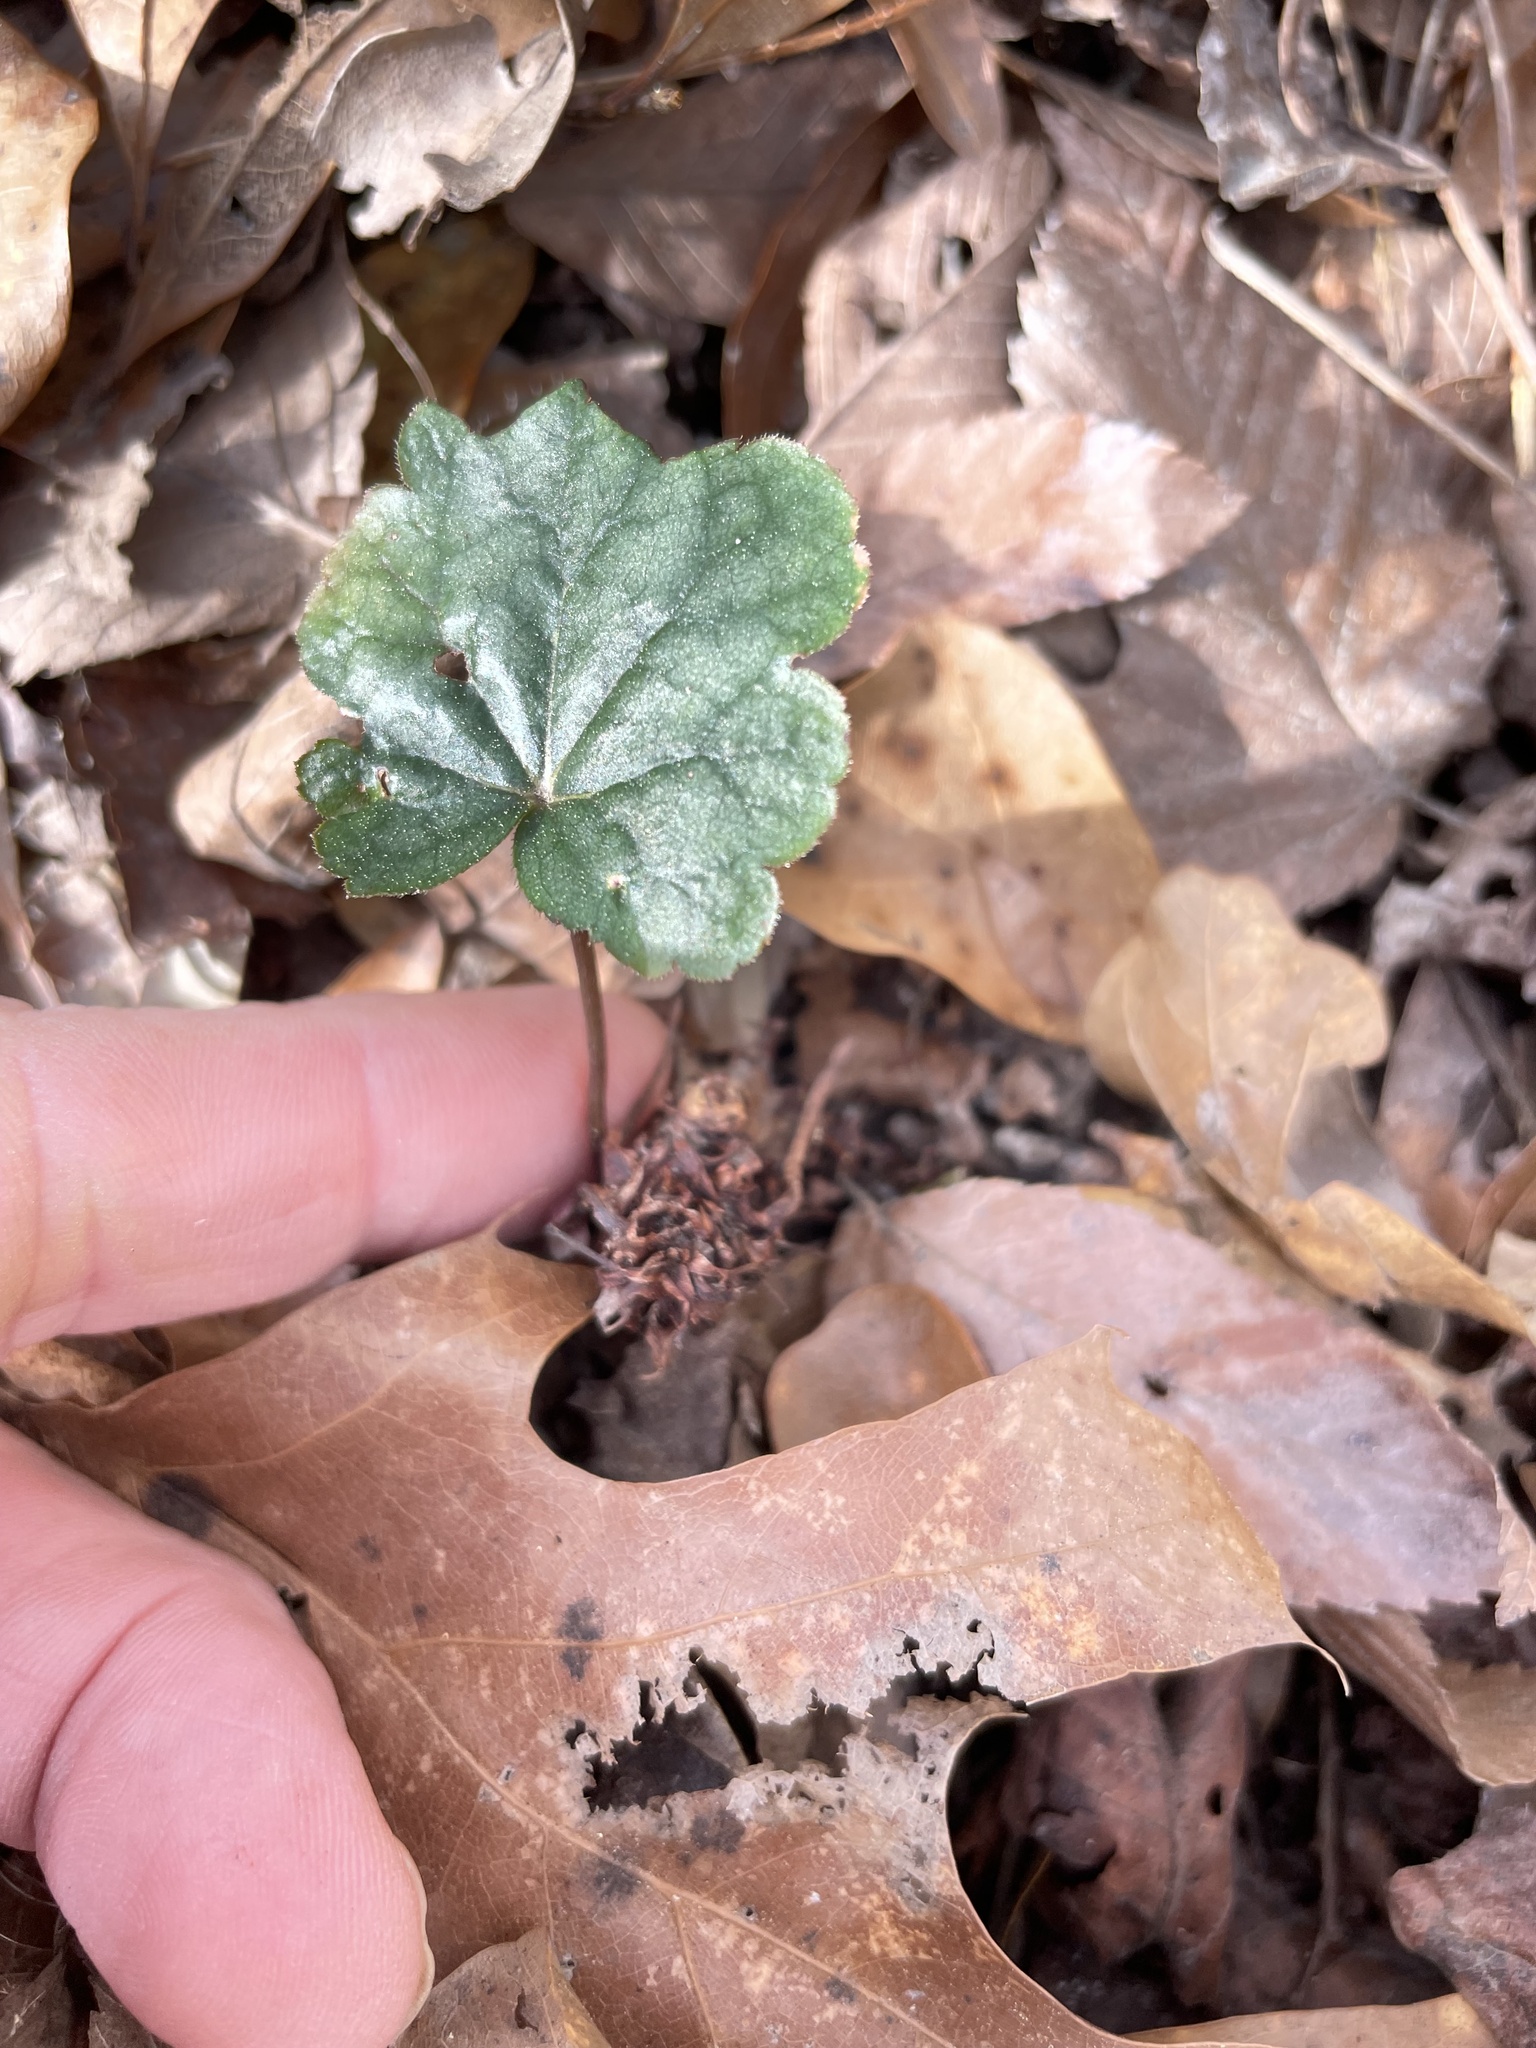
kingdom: Plantae
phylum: Tracheophyta
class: Magnoliopsida
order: Saxifragales
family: Saxifragaceae
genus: Heuchera
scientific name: Heuchera caroliniana
